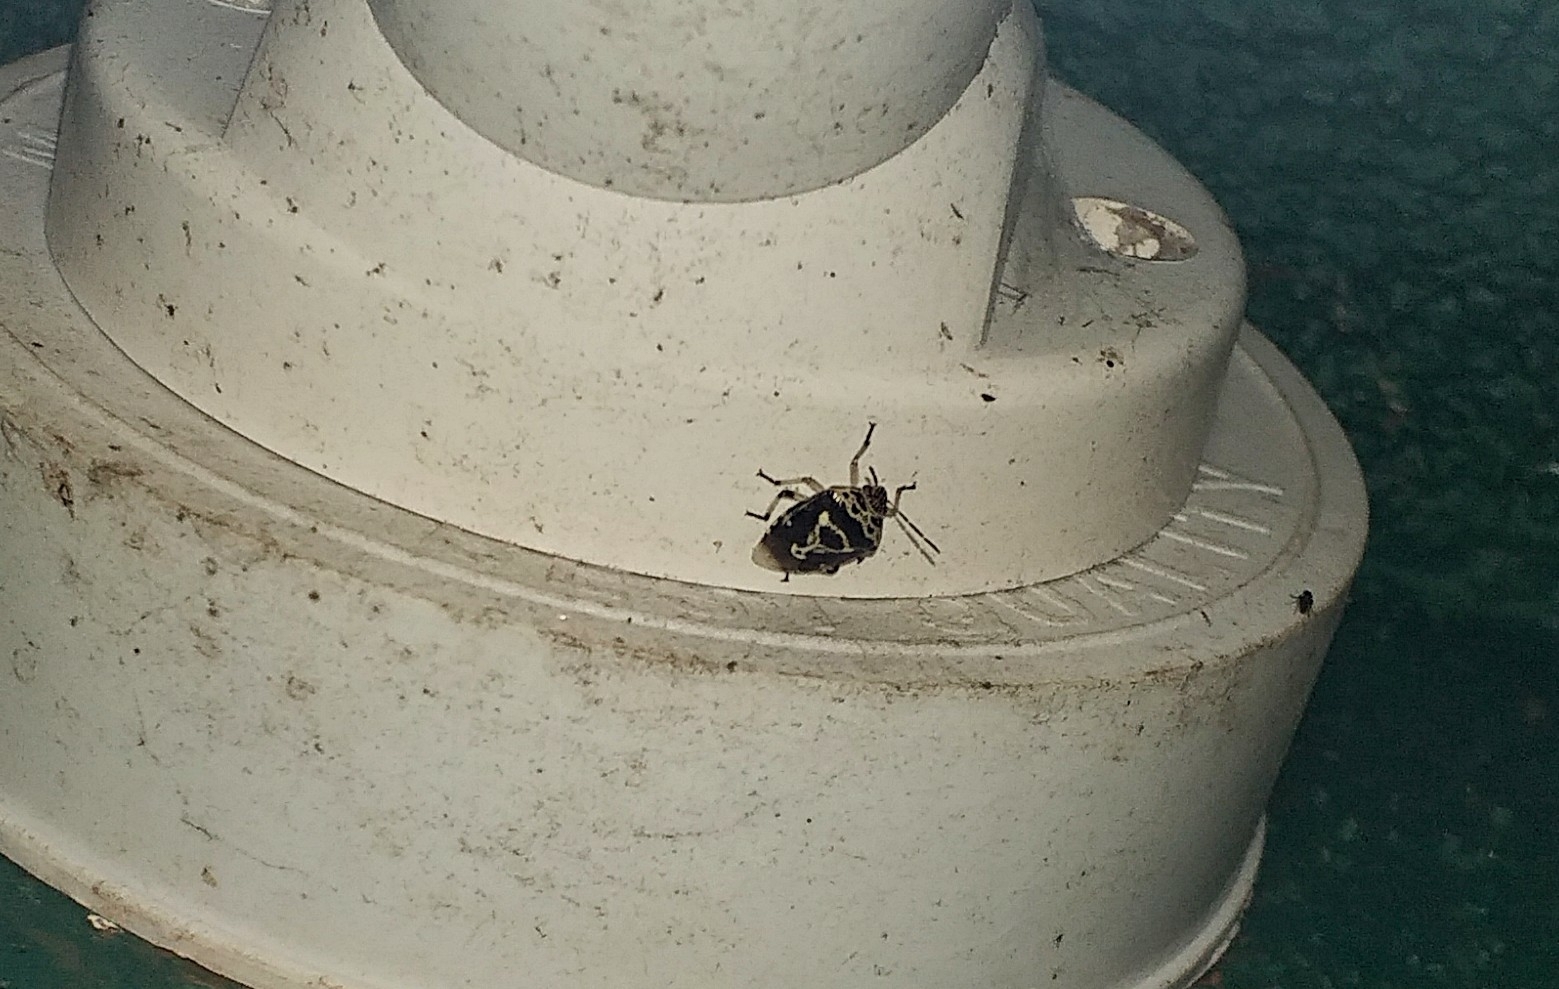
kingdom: Animalia
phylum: Arthropoda
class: Insecta
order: Hemiptera
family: Pentatomidae
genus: Menida
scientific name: Menida formosa
